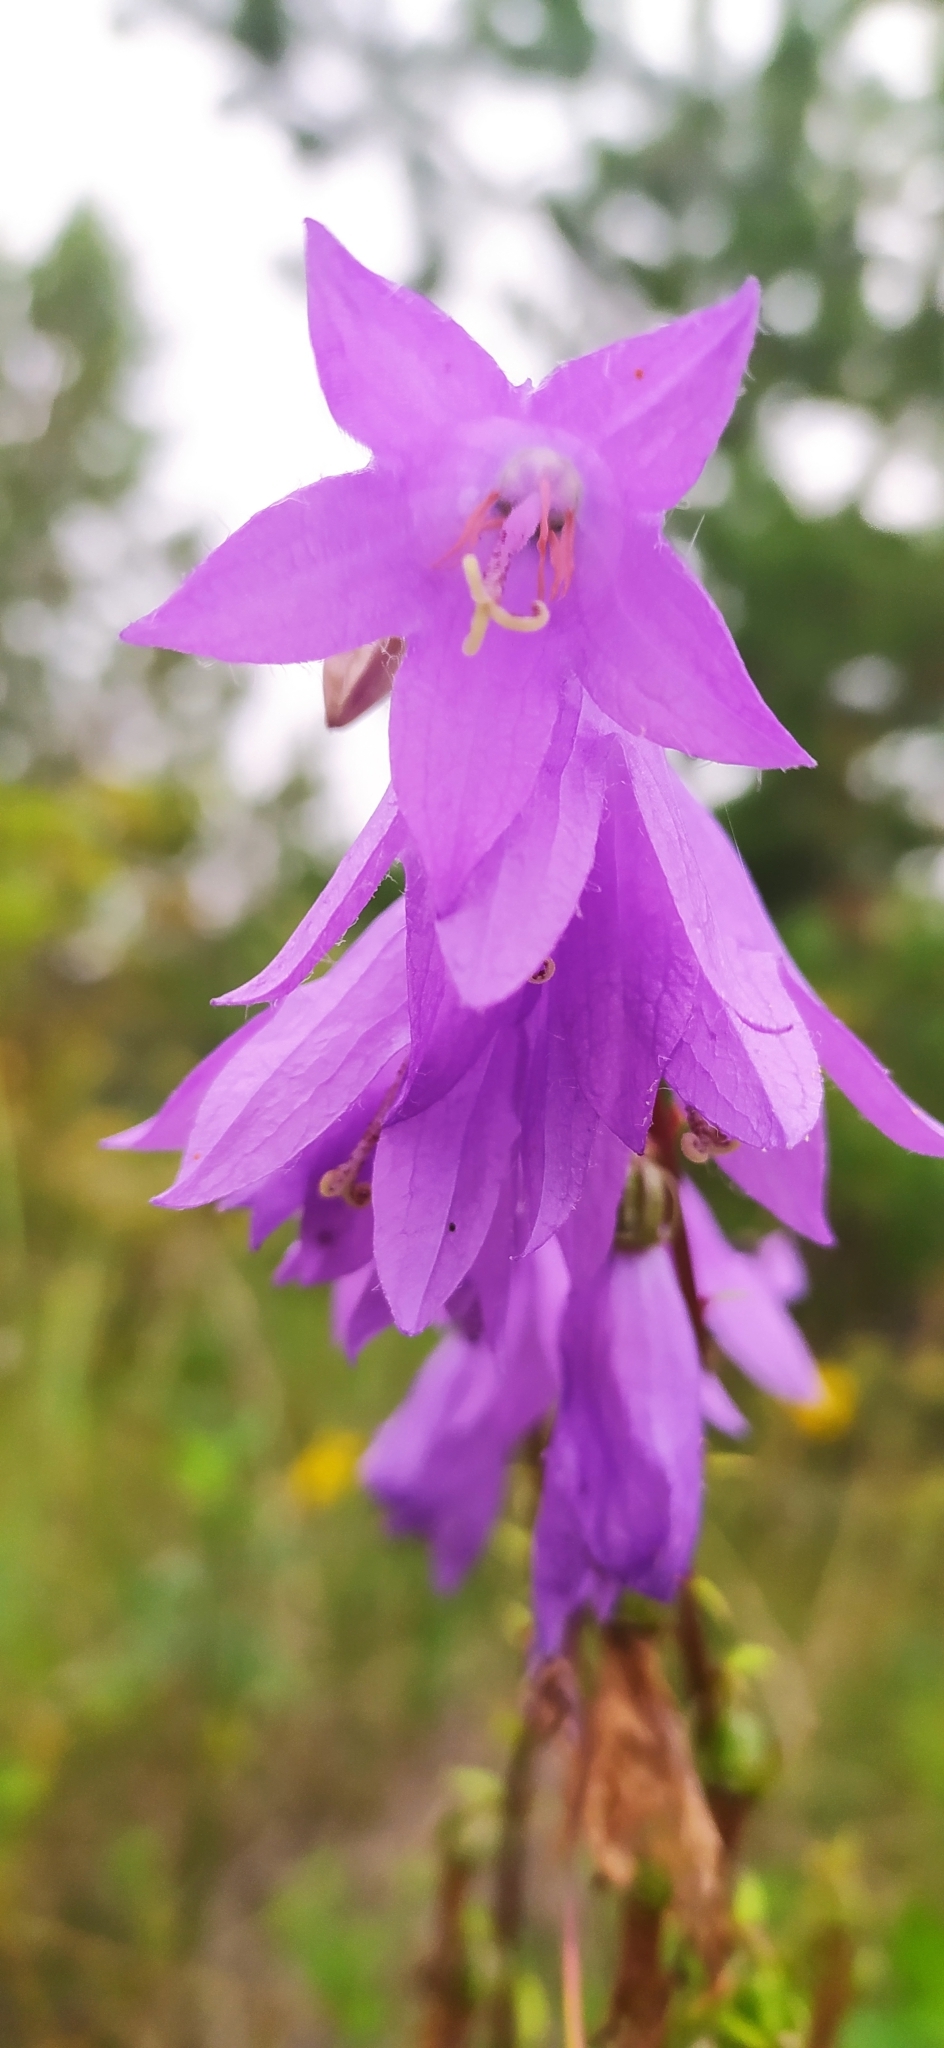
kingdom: Plantae
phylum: Tracheophyta
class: Magnoliopsida
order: Asterales
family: Campanulaceae
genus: Campanula
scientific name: Campanula rapunculoides
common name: Creeping bellflower
